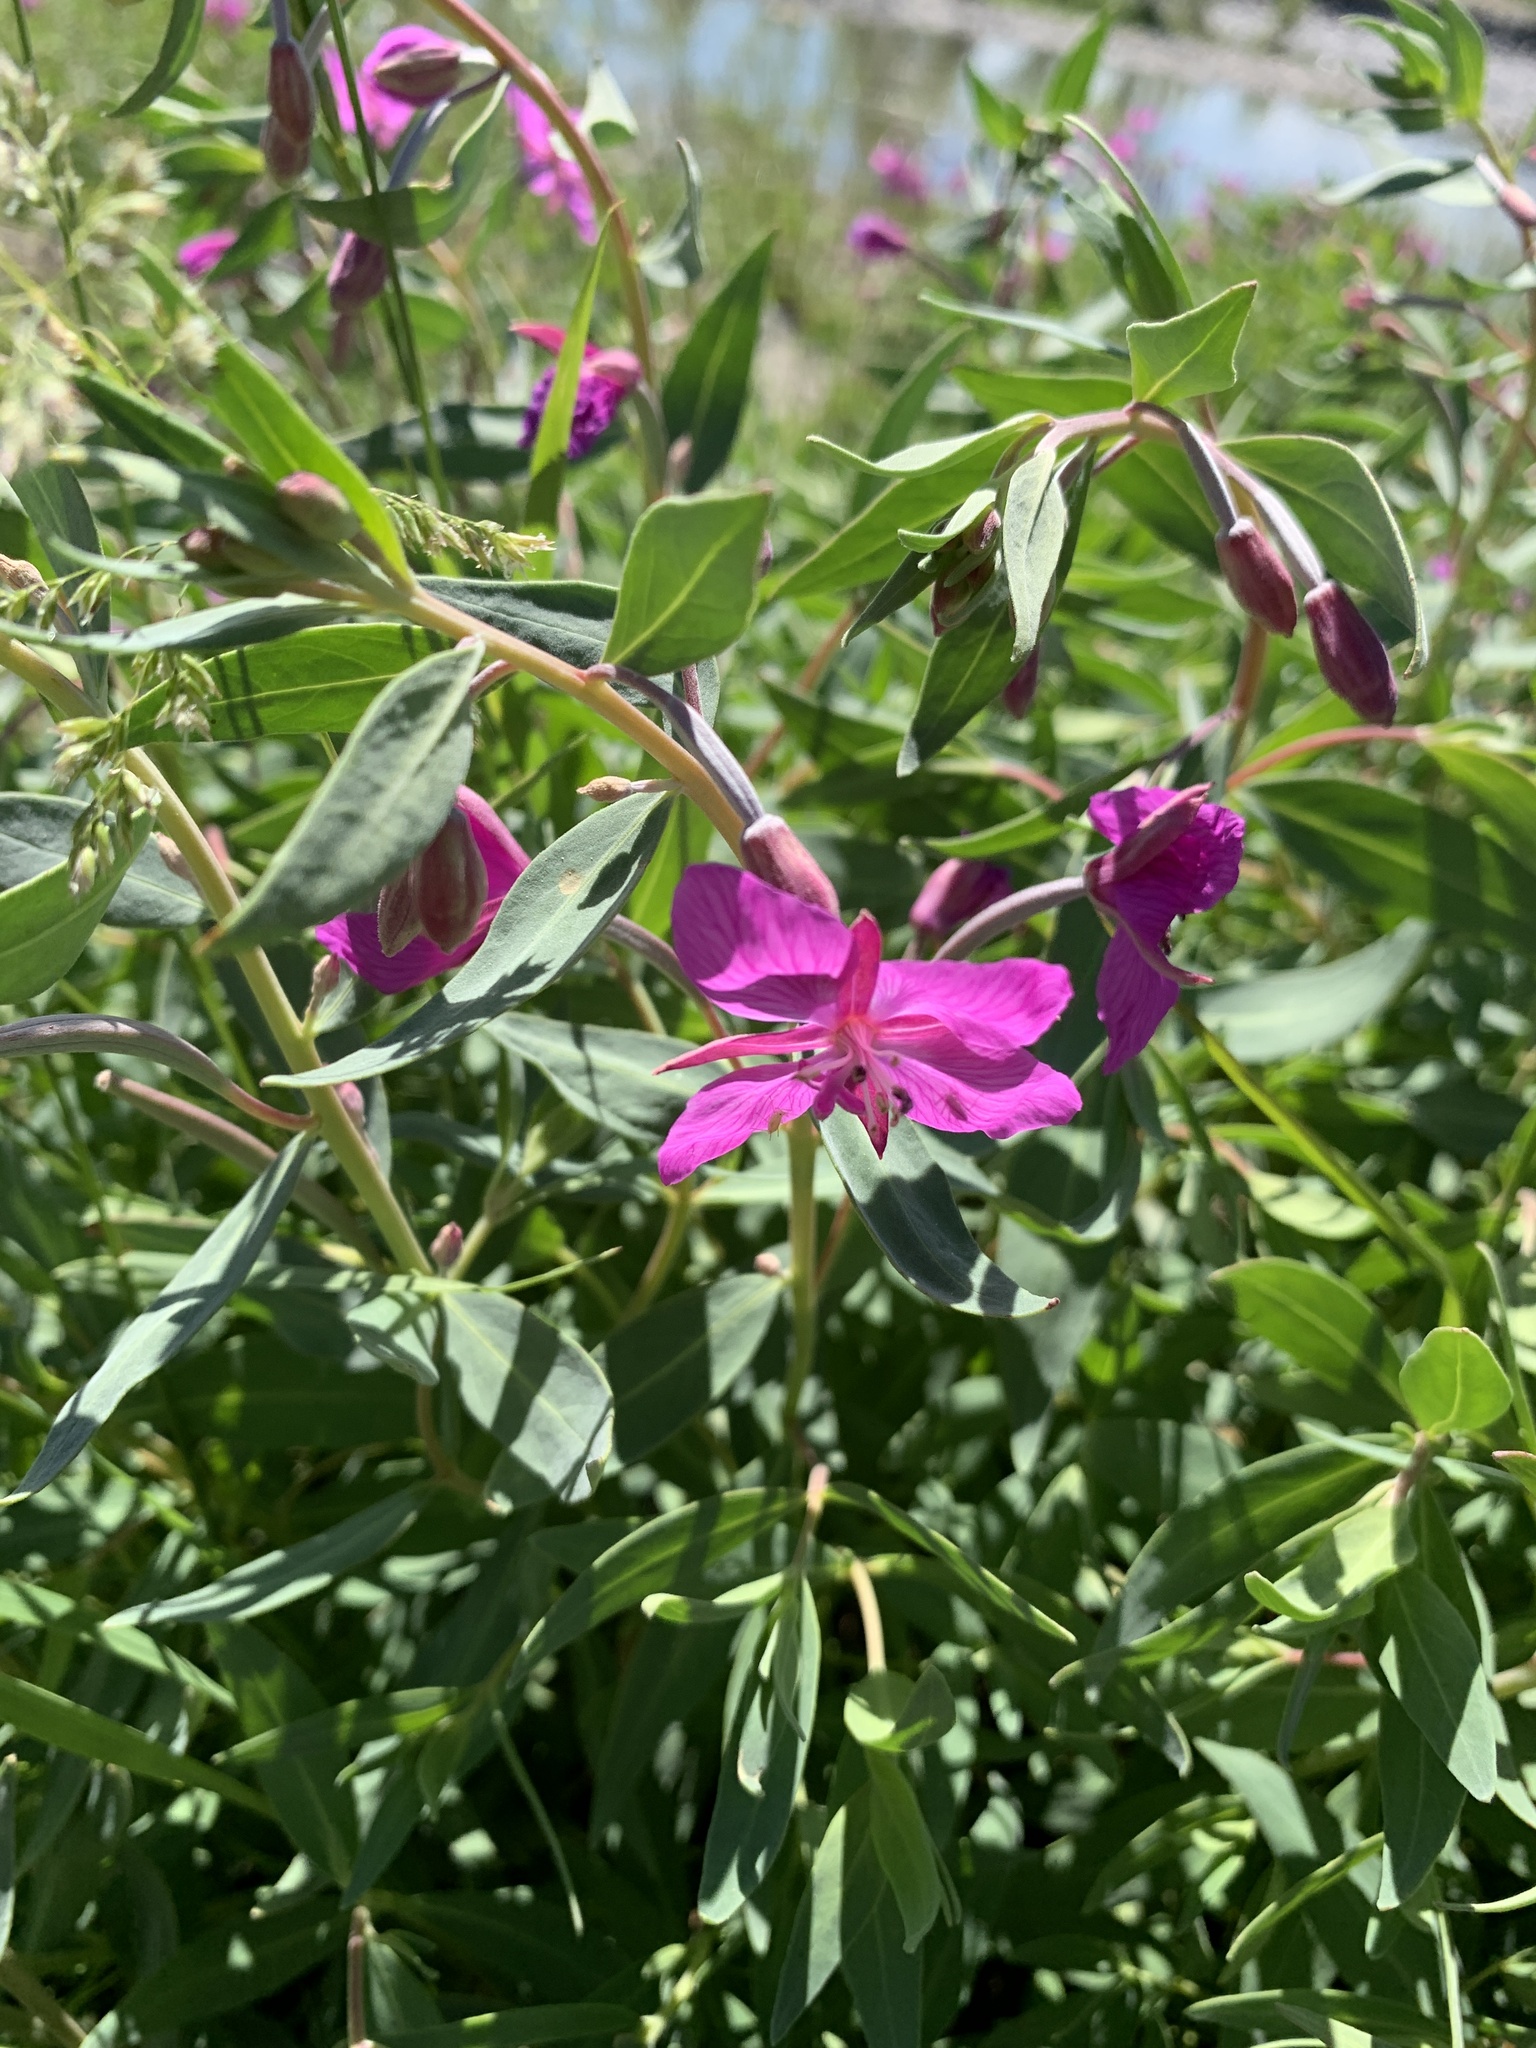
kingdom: Plantae
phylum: Tracheophyta
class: Magnoliopsida
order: Myrtales
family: Onagraceae
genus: Chamaenerion
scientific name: Chamaenerion latifolium
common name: Dwarf fireweed
